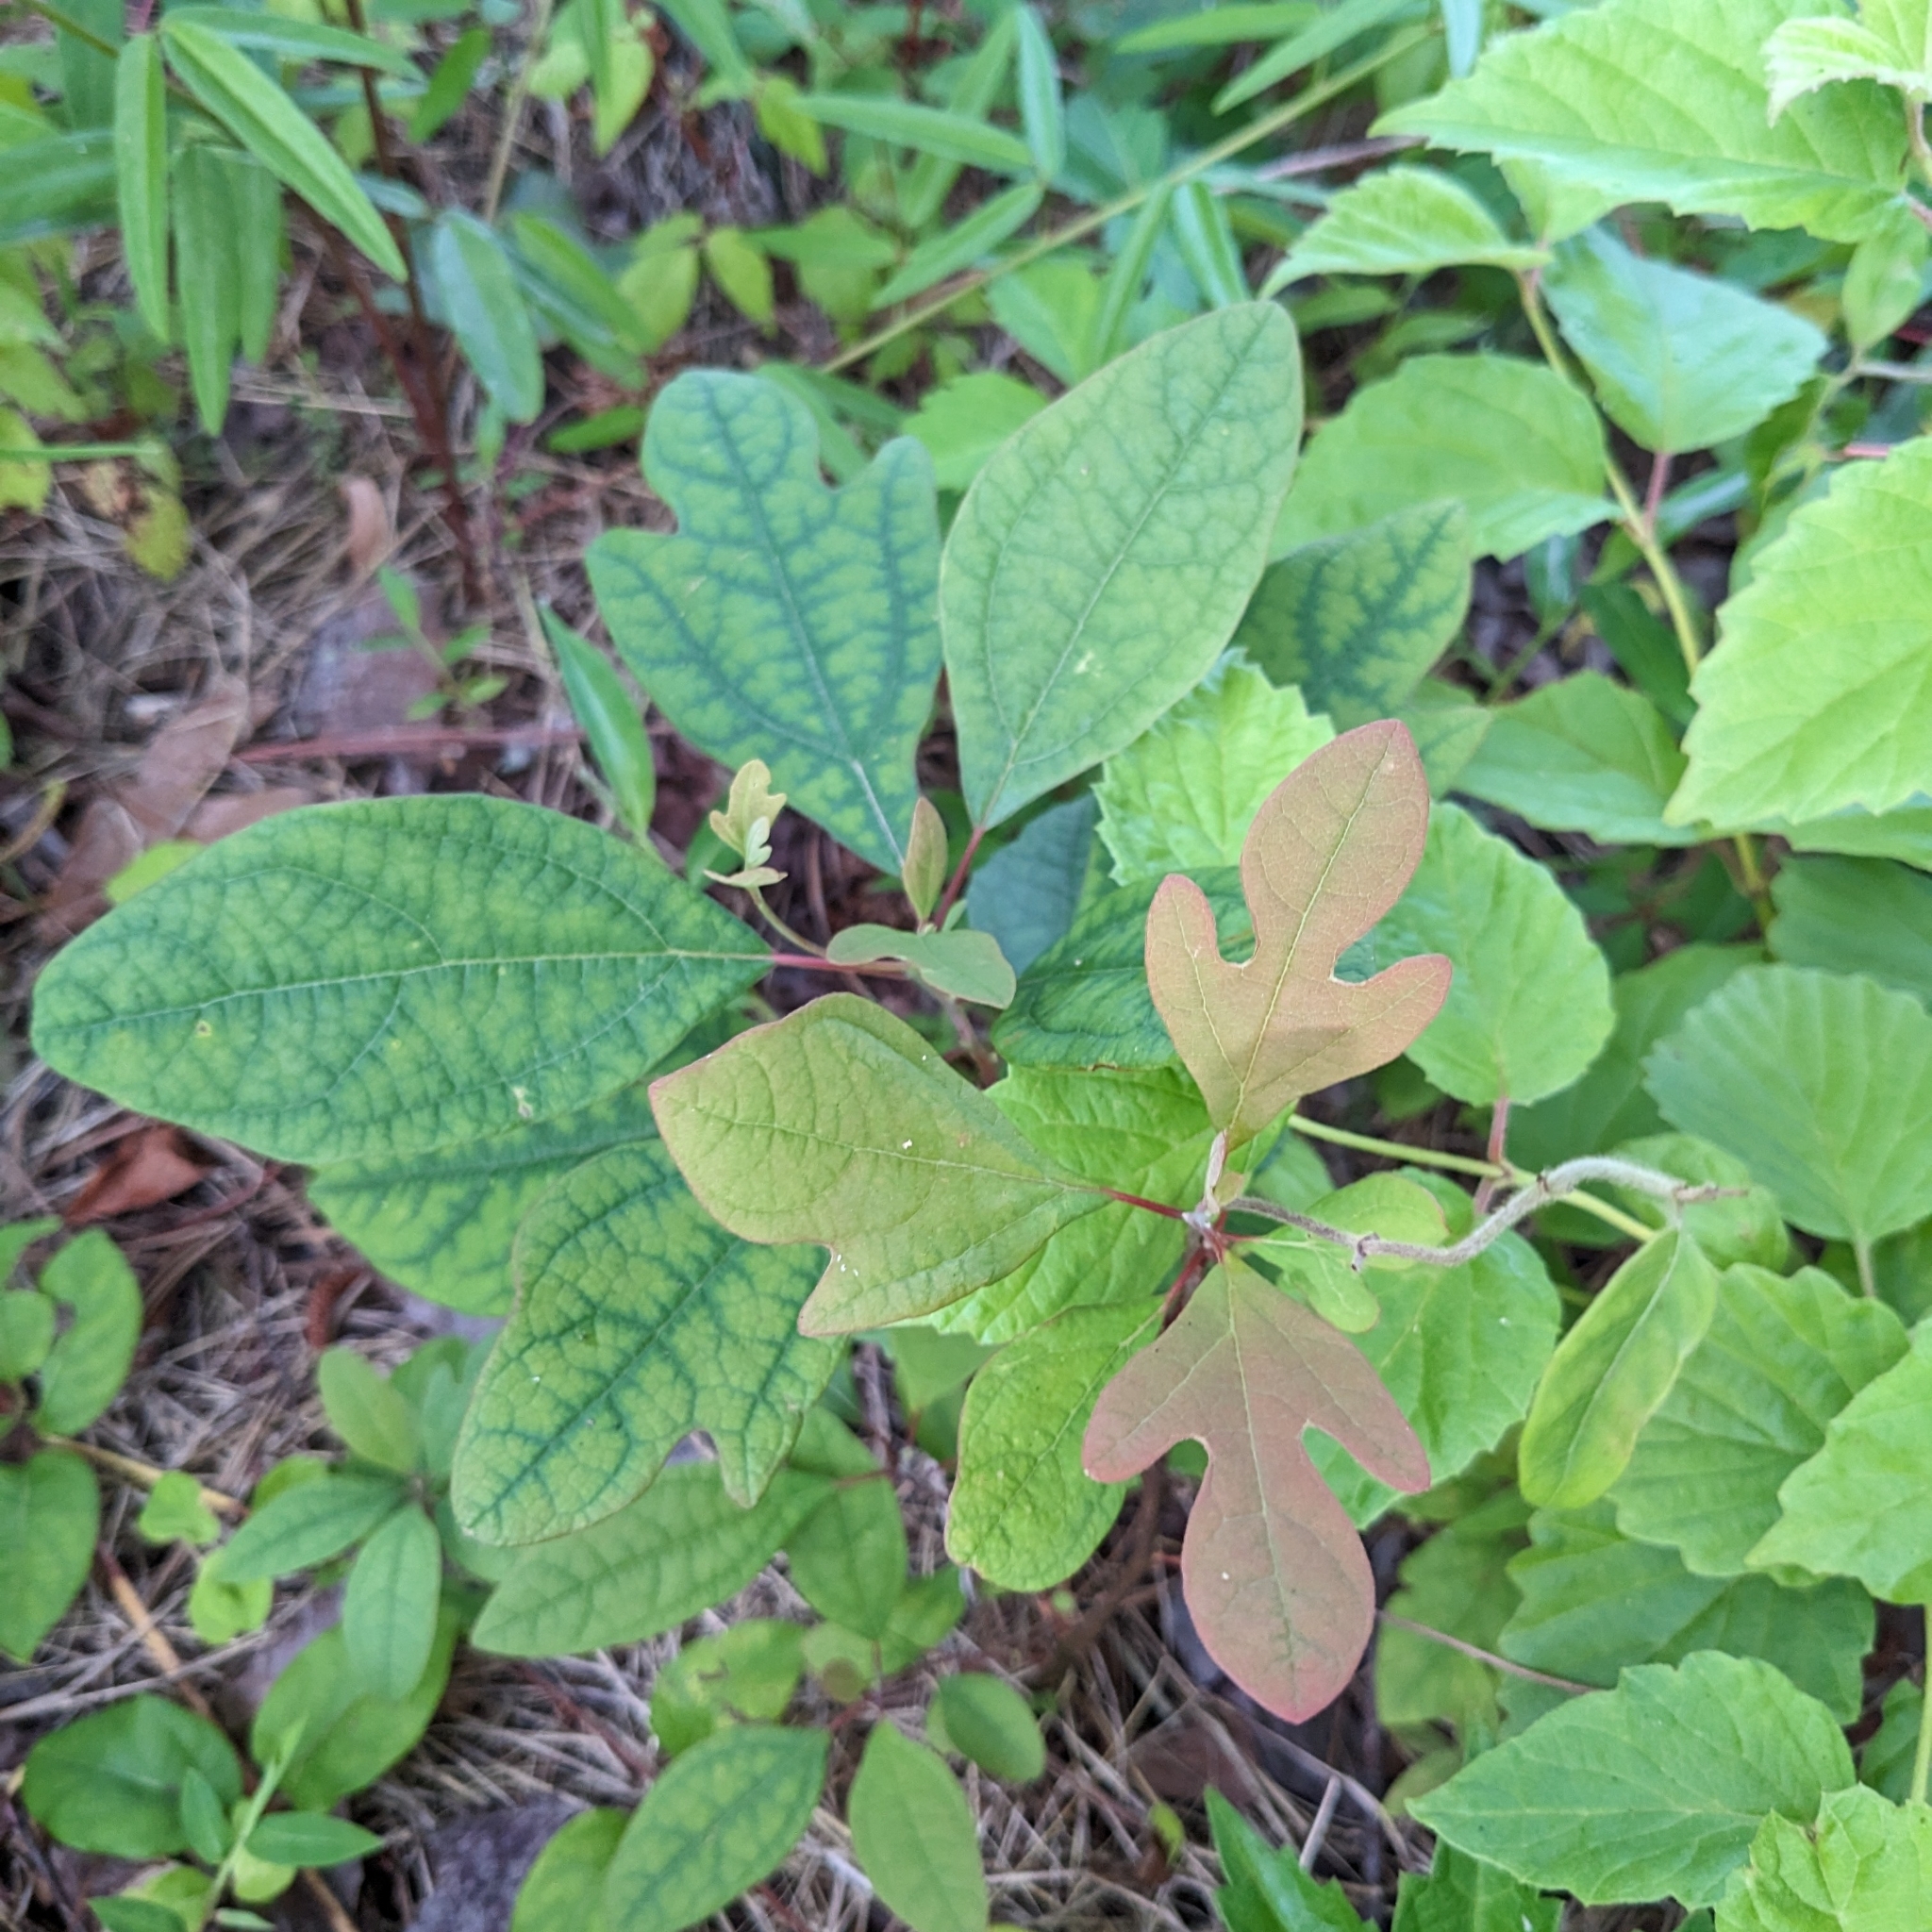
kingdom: Plantae
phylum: Tracheophyta
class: Magnoliopsida
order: Laurales
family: Lauraceae
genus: Sassafras
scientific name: Sassafras albidum
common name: Sassafras
